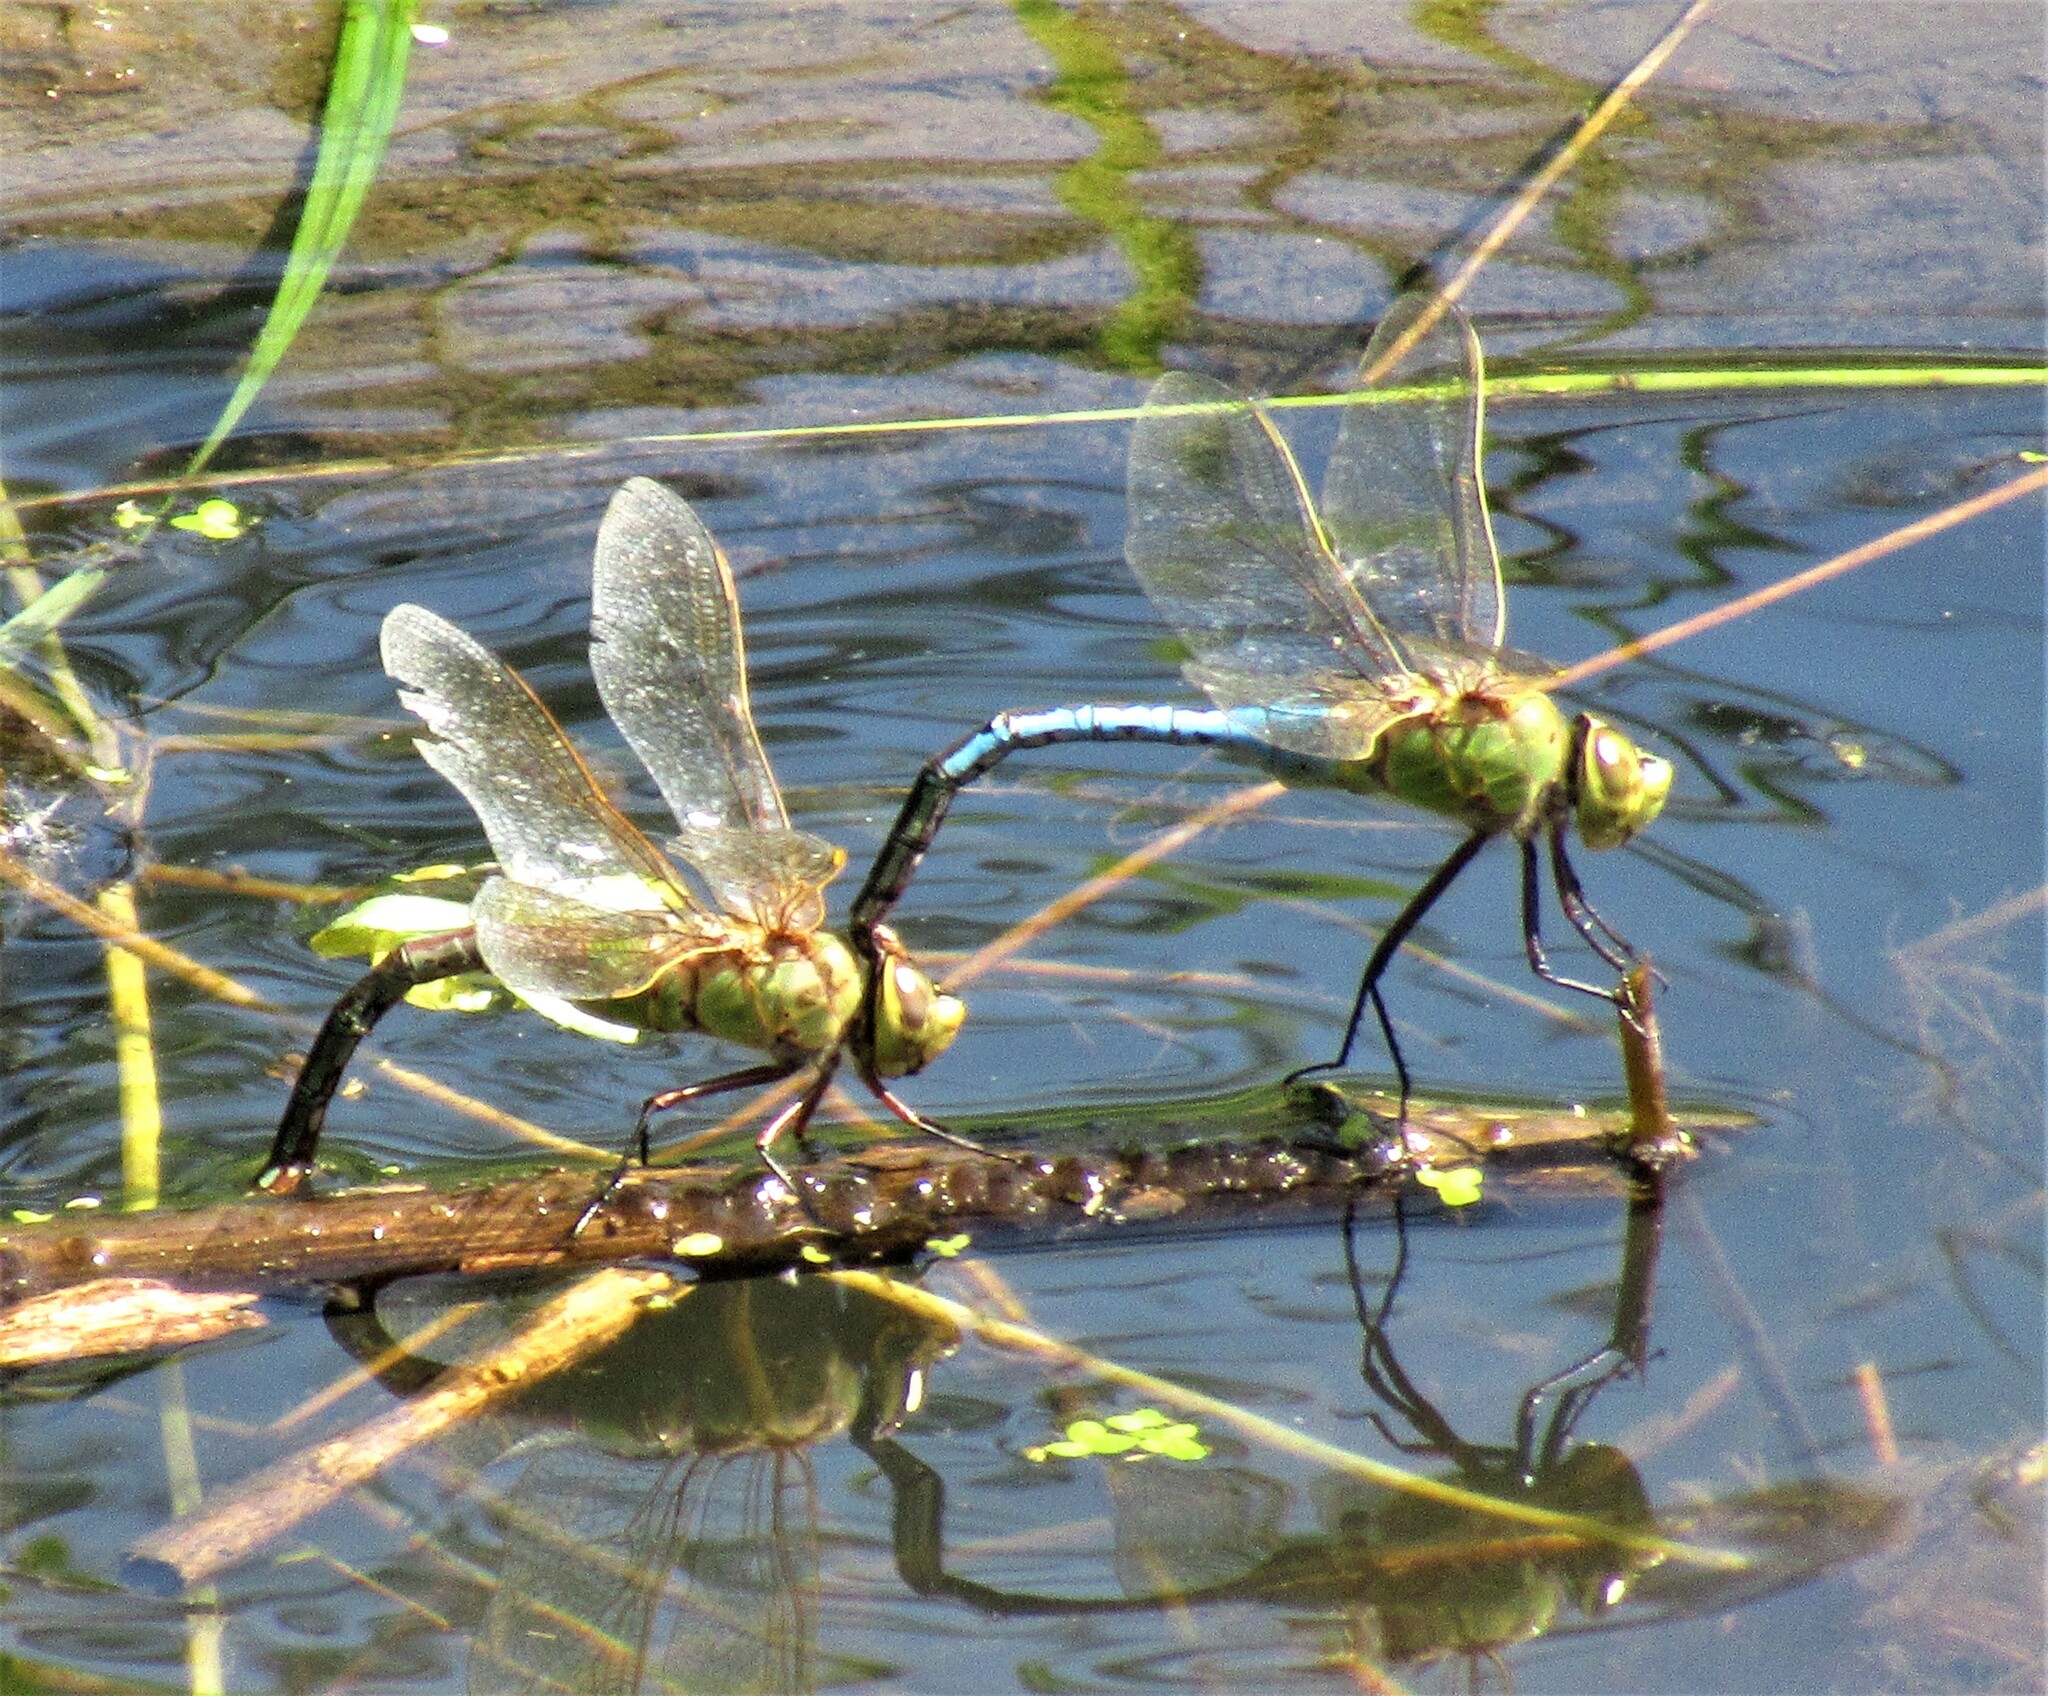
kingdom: Animalia
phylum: Arthropoda
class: Insecta
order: Odonata
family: Aeshnidae
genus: Anax
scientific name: Anax junius
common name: Common green darner
